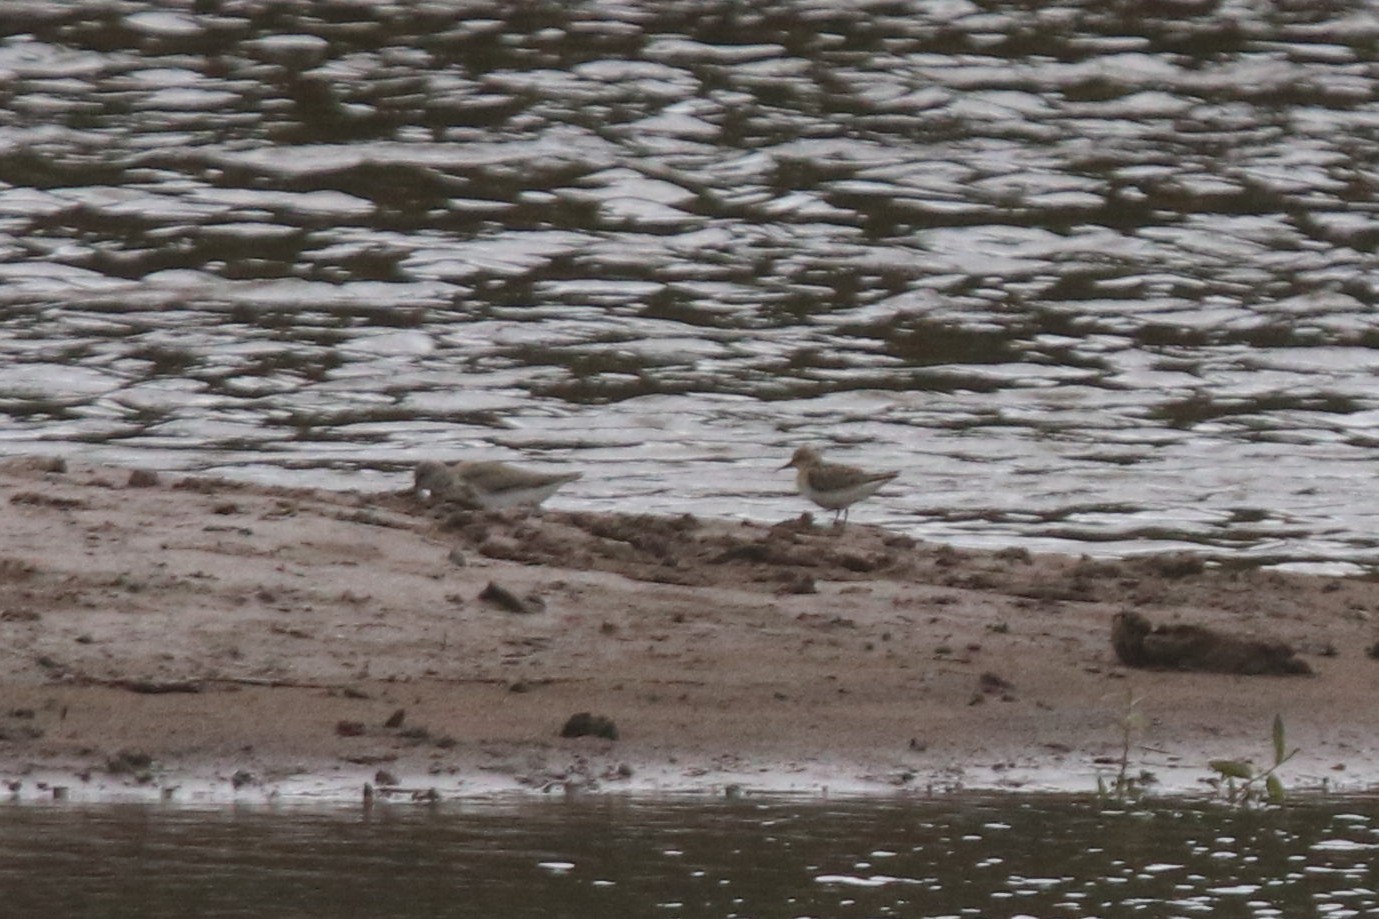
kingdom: Animalia
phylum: Chordata
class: Aves
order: Charadriiformes
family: Scolopacidae
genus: Calidris
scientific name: Calidris temminckii
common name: Temminck's stint
